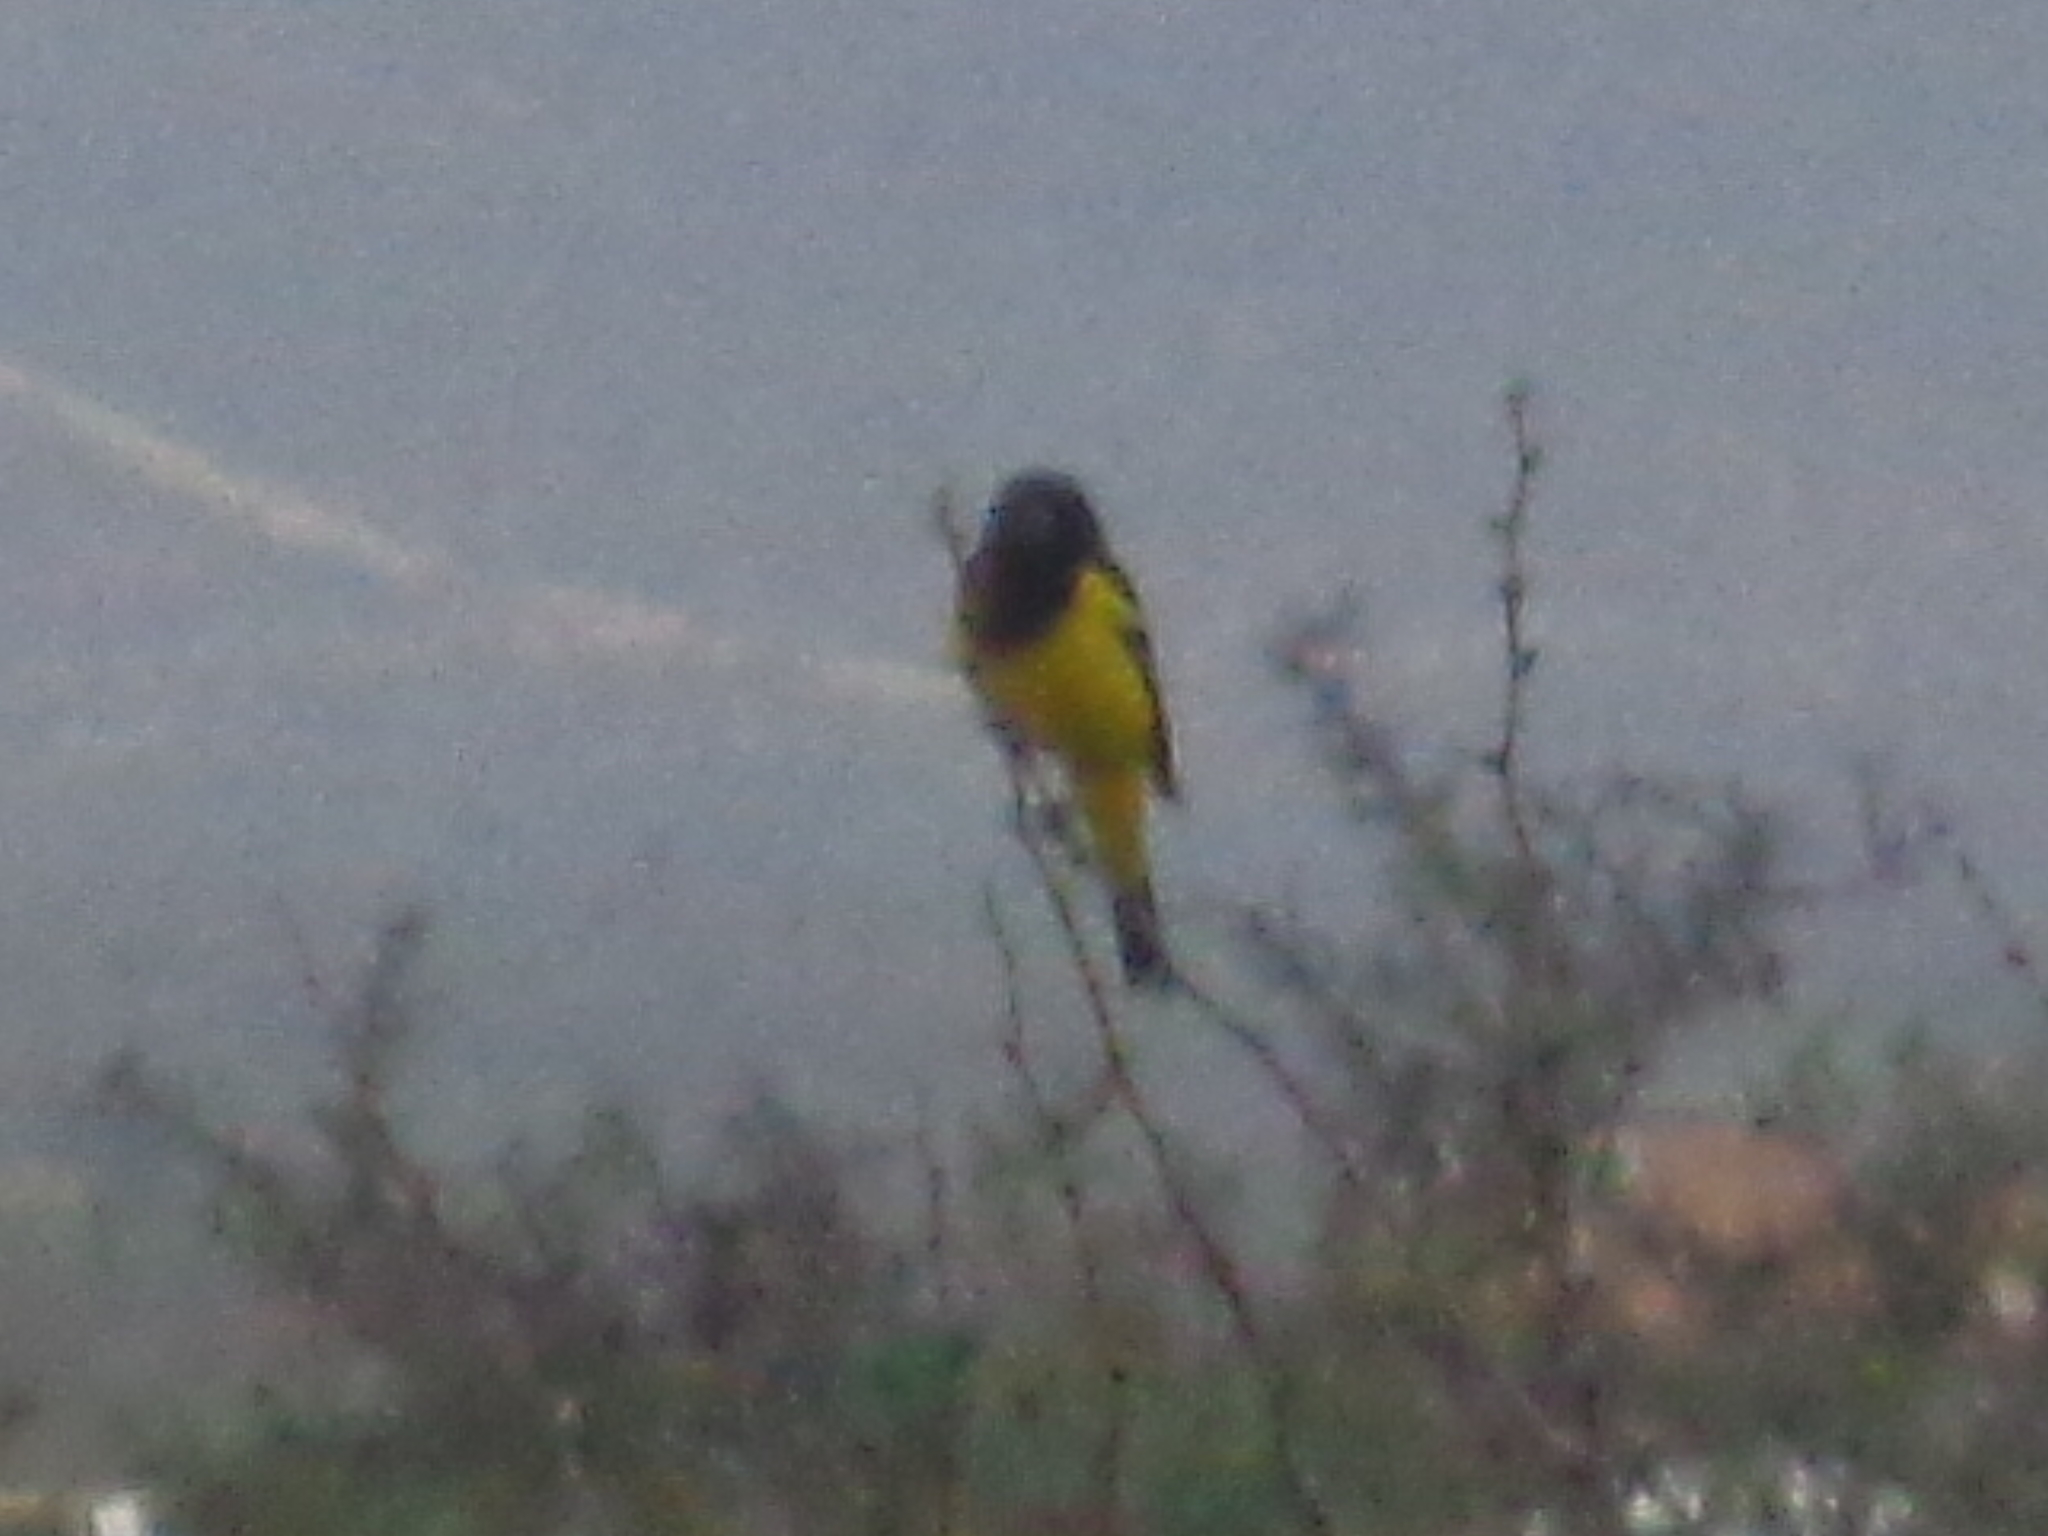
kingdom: Animalia
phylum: Chordata
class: Aves
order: Passeriformes
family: Icteridae
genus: Icterus
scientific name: Icterus parisorum
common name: Scott's oriole
